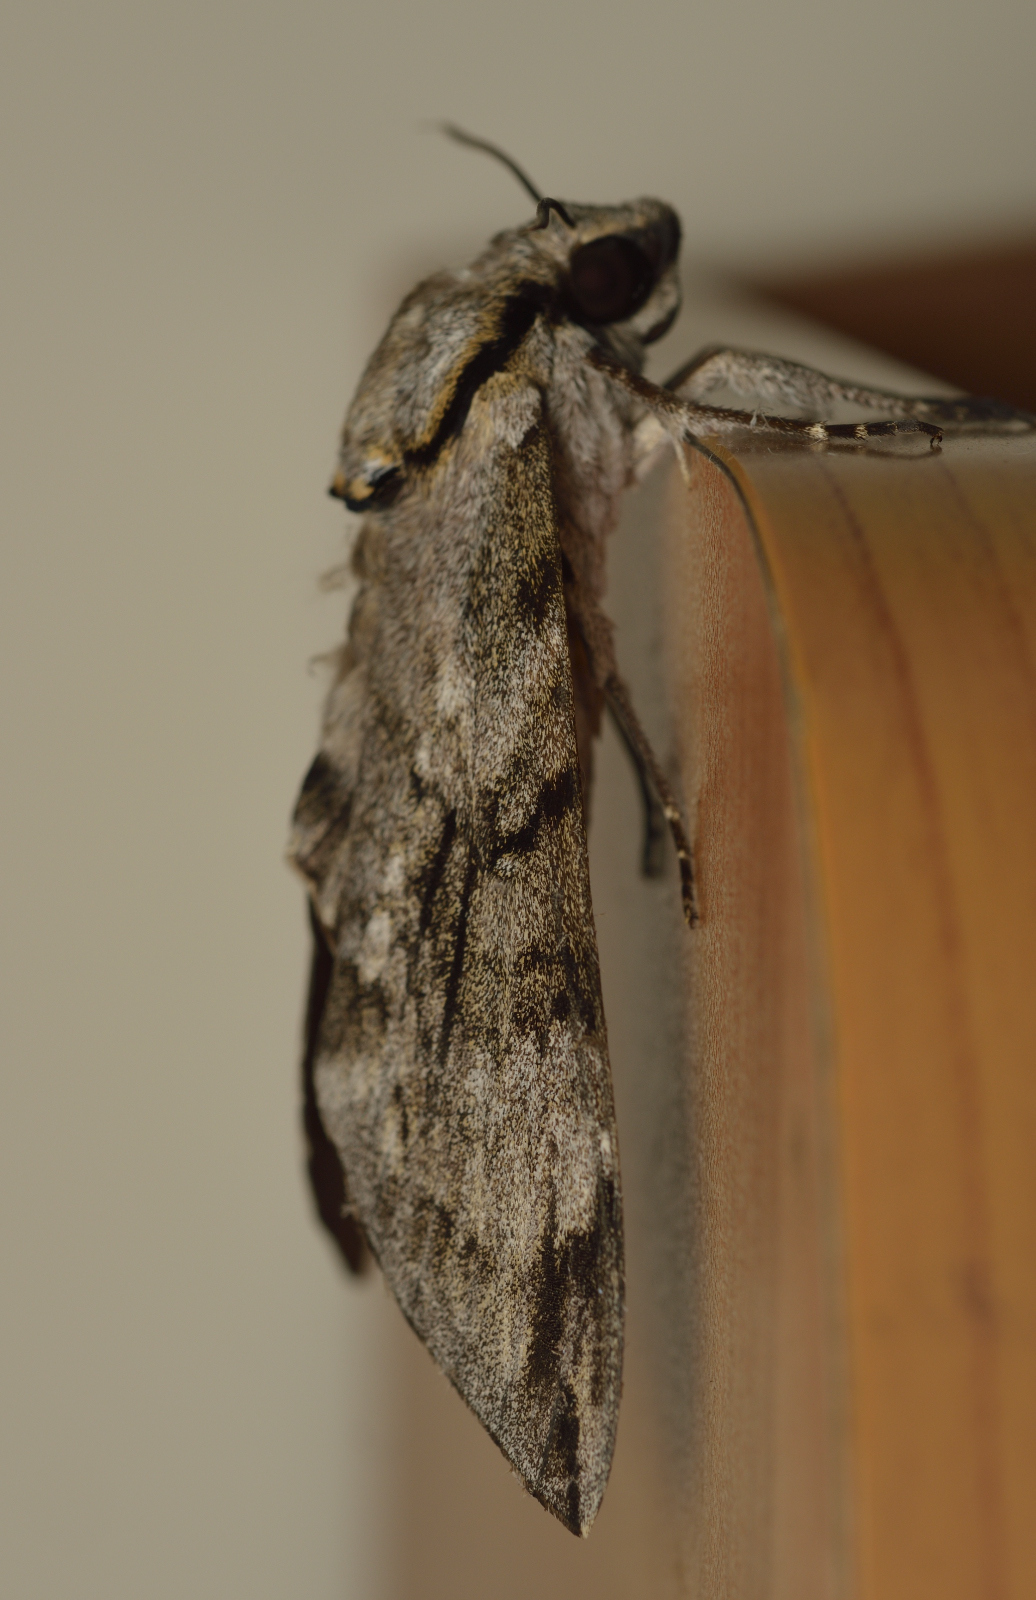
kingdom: Animalia
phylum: Arthropoda
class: Insecta
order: Lepidoptera
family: Sphingidae
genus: Psilogramma
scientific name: Psilogramma vates
